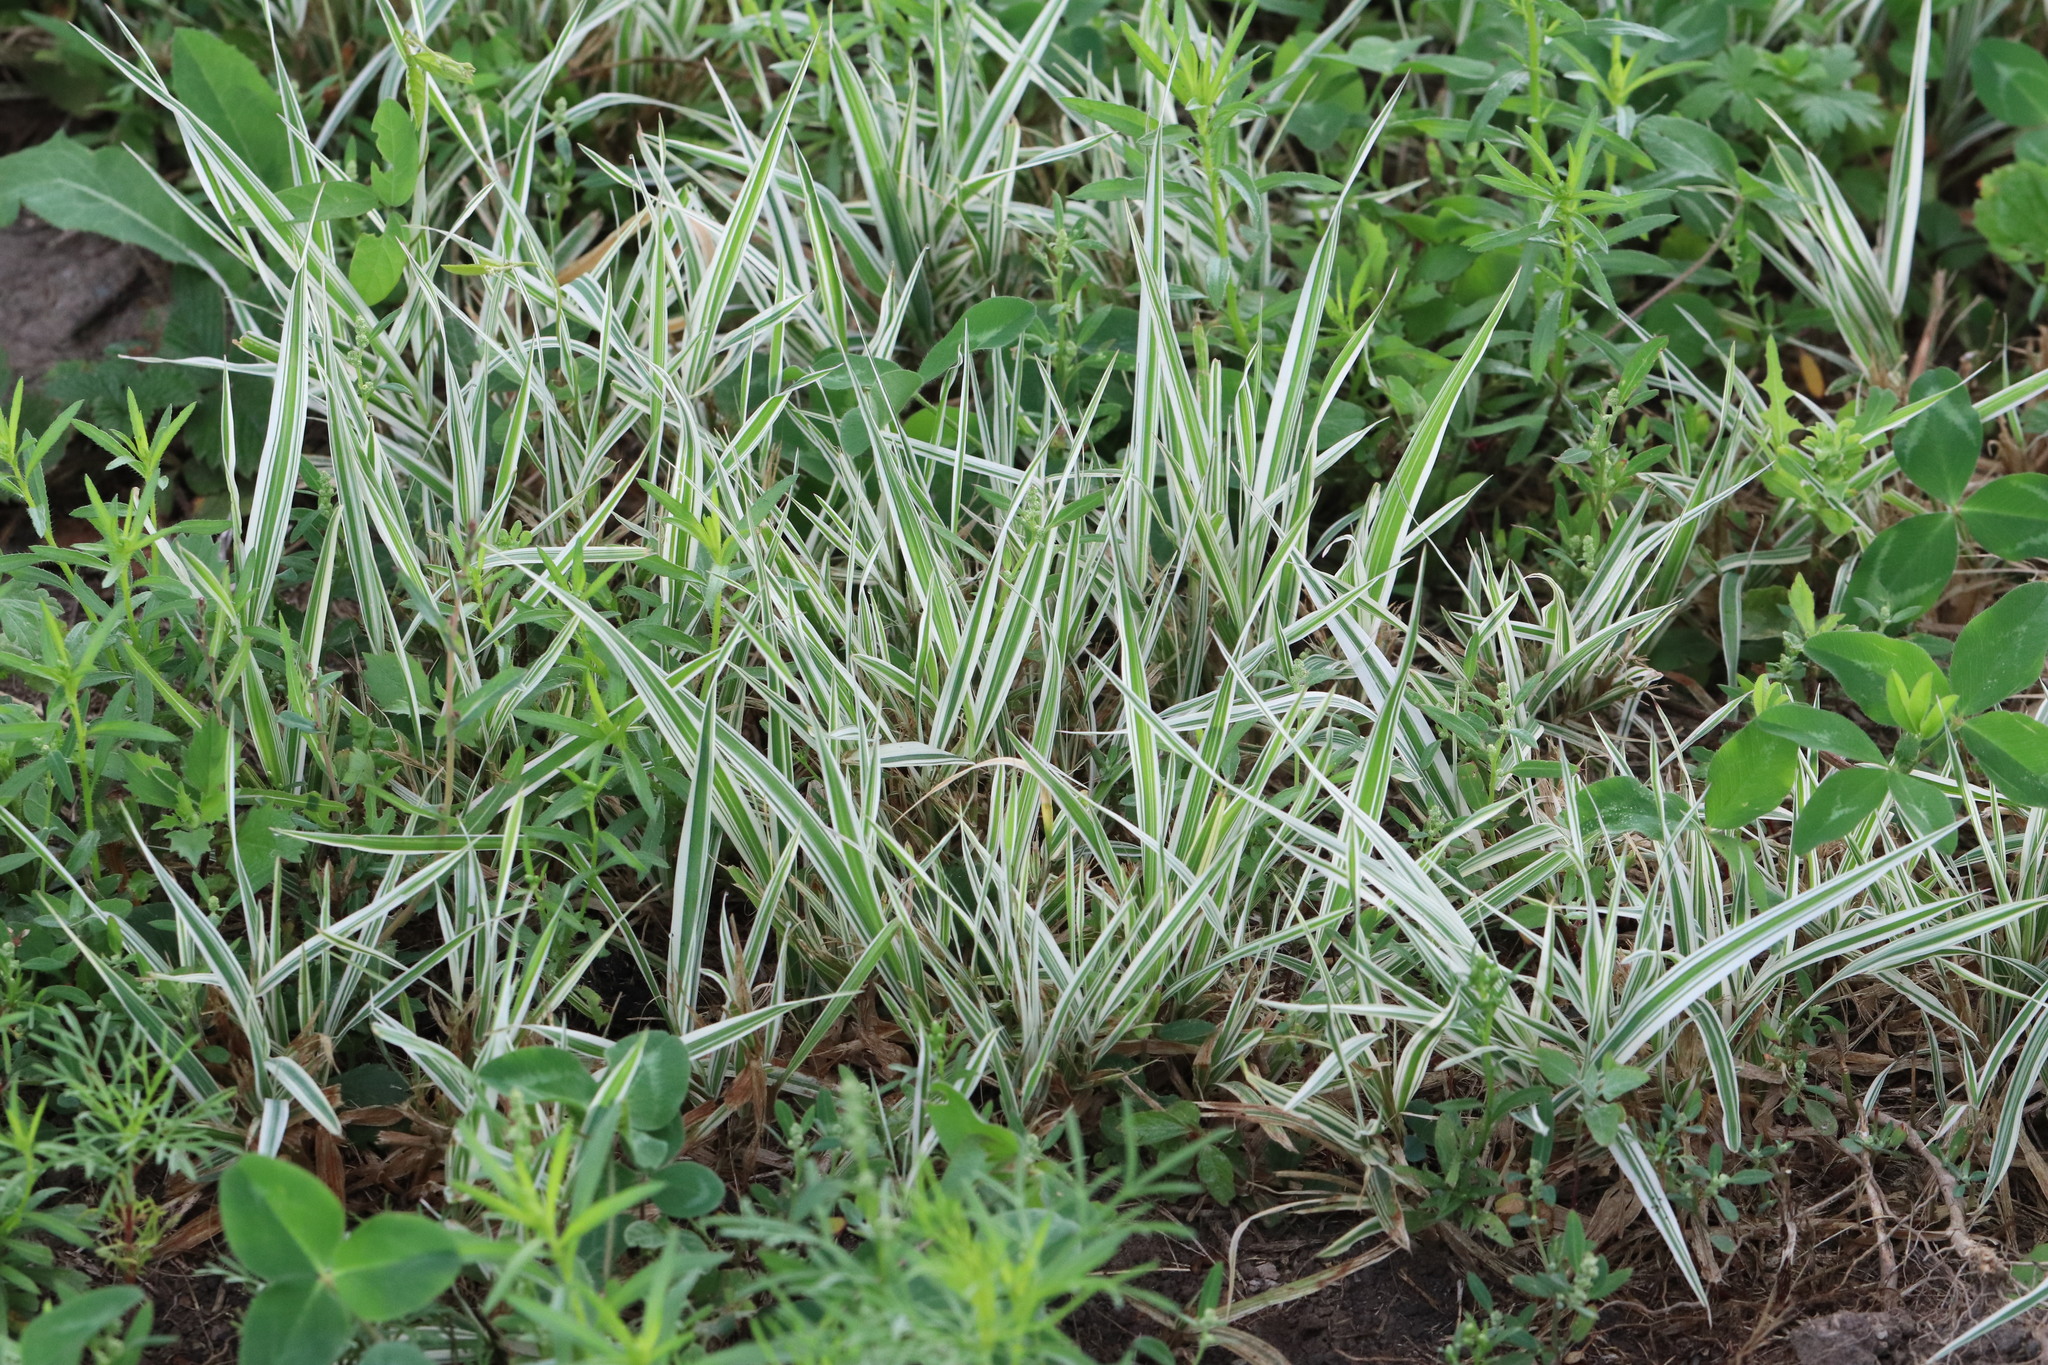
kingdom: Plantae
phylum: Tracheophyta
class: Liliopsida
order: Poales
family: Poaceae
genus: Phalaris
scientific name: Phalaris arundinacea
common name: Reed canary-grass
